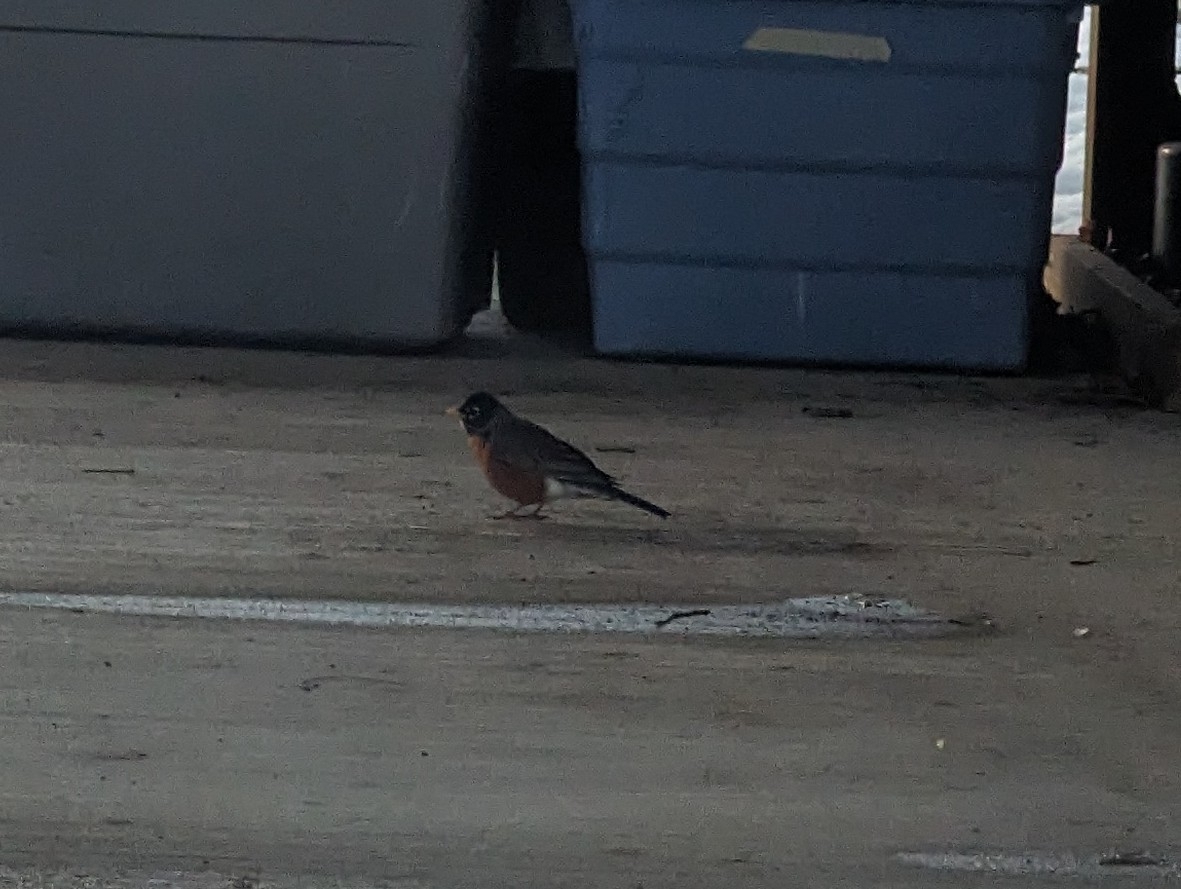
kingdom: Animalia
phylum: Chordata
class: Aves
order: Passeriformes
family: Turdidae
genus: Turdus
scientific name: Turdus migratorius
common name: American robin
